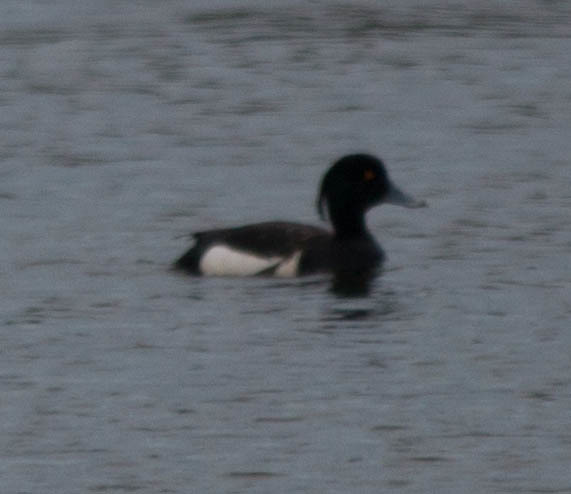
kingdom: Animalia
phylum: Chordata
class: Aves
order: Anseriformes
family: Anatidae
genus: Aythya
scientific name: Aythya fuligula
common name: Tufted duck
